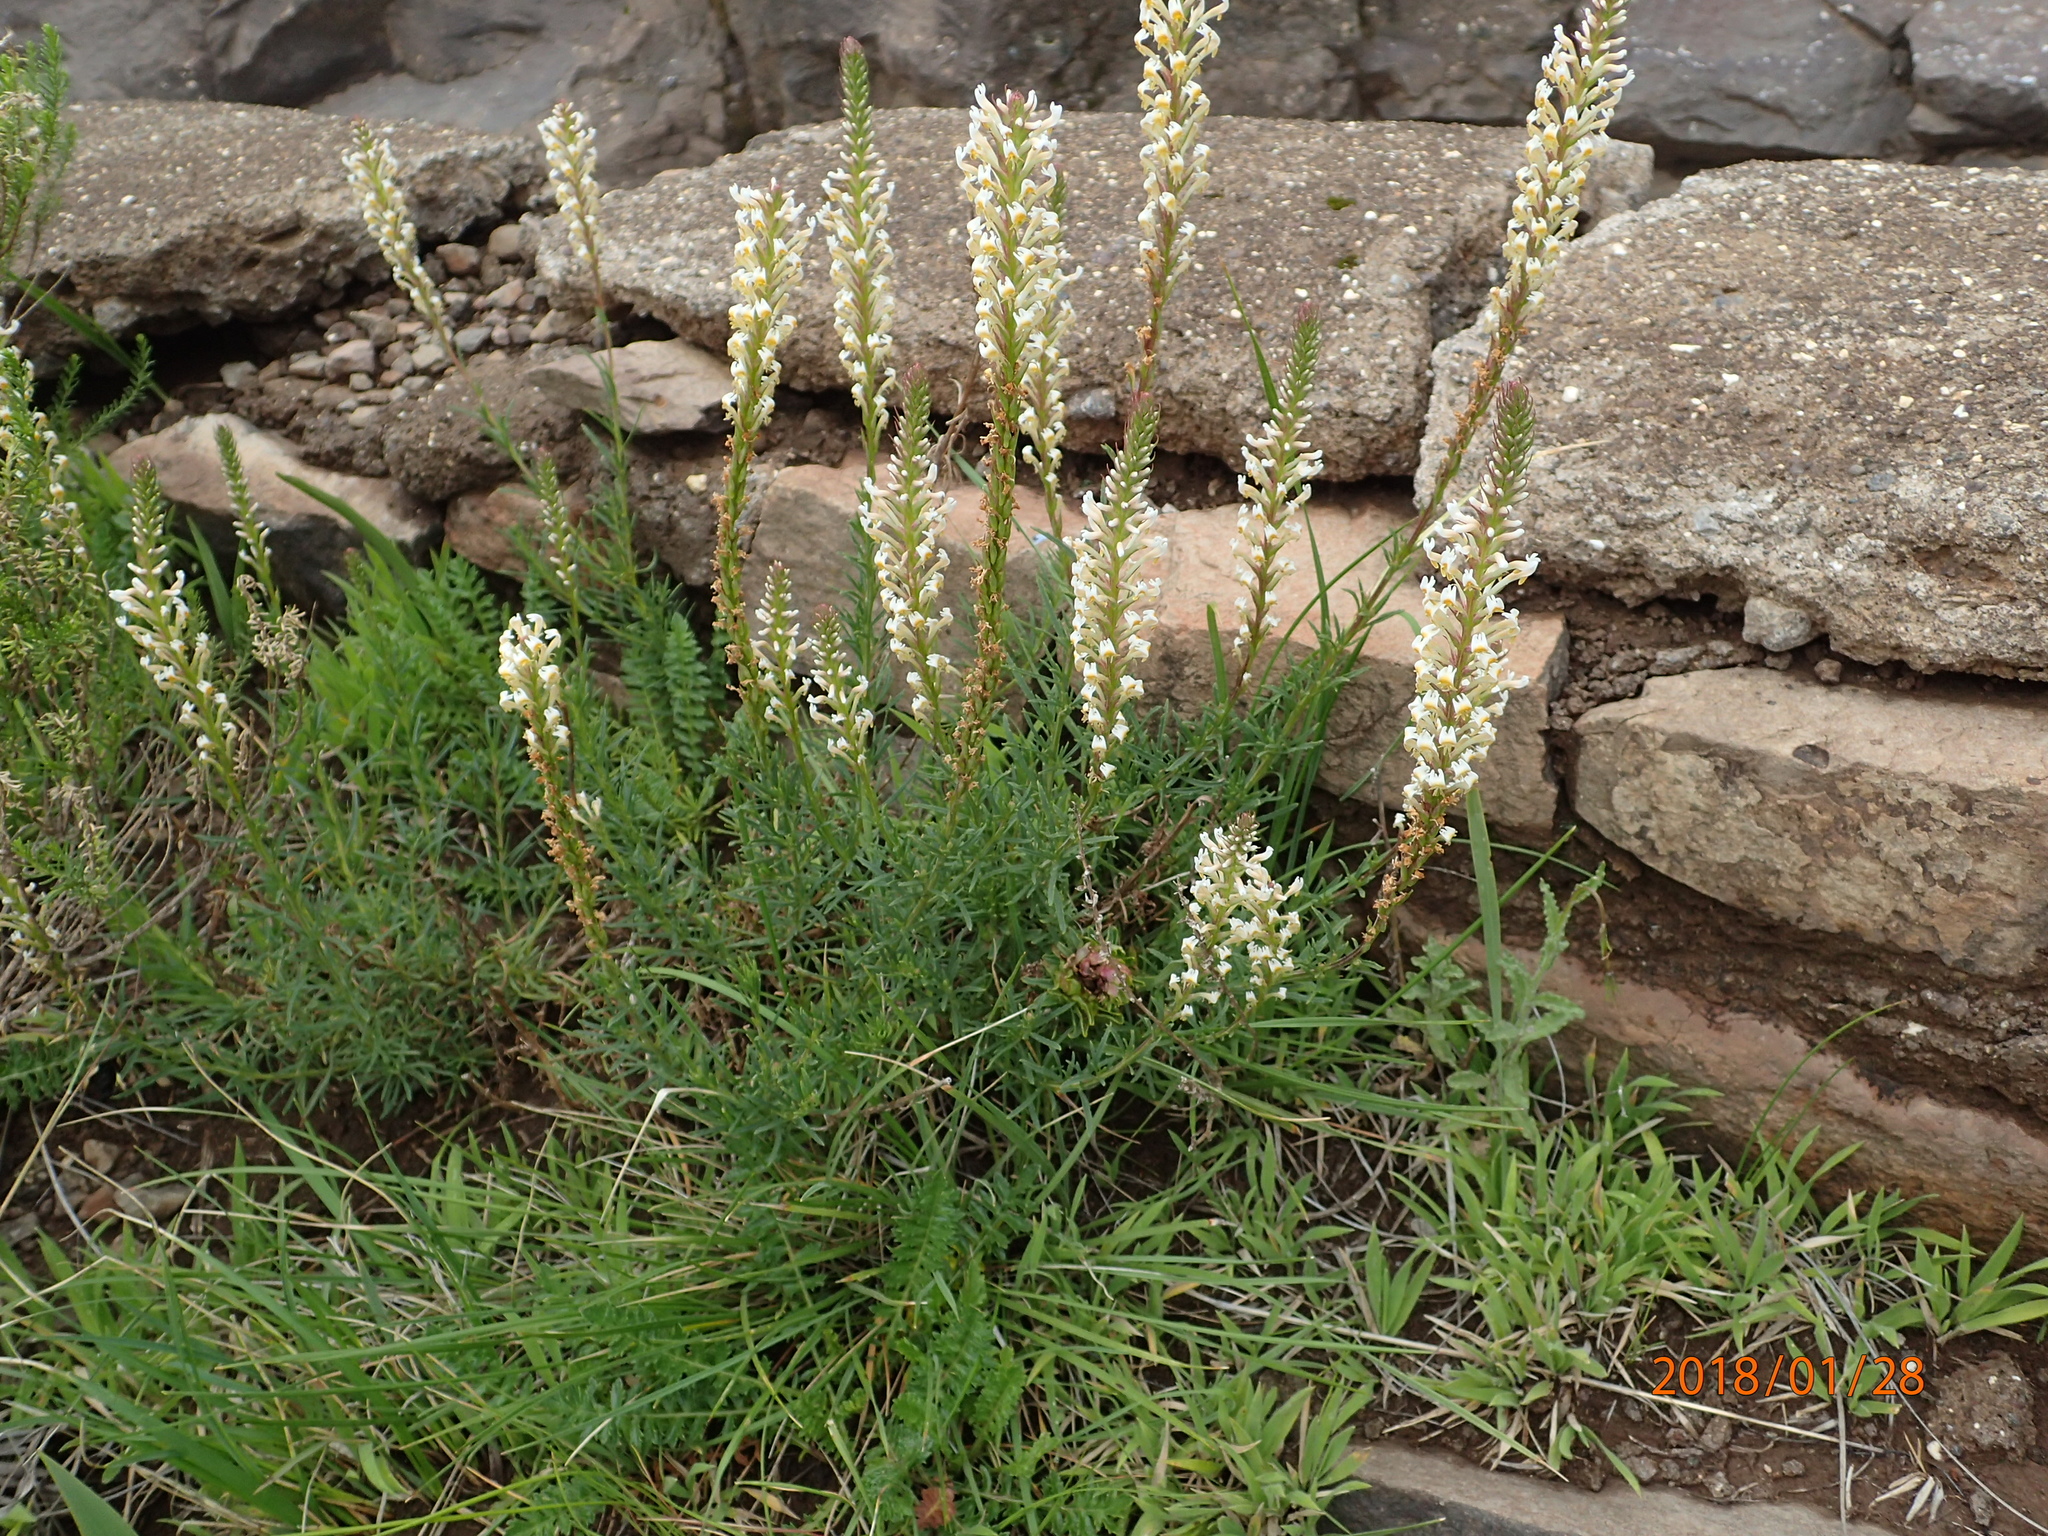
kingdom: Plantae
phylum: Tracheophyta
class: Magnoliopsida
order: Lamiales
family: Scrophulariaceae
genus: Hebenstretia
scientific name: Hebenstretia dura
